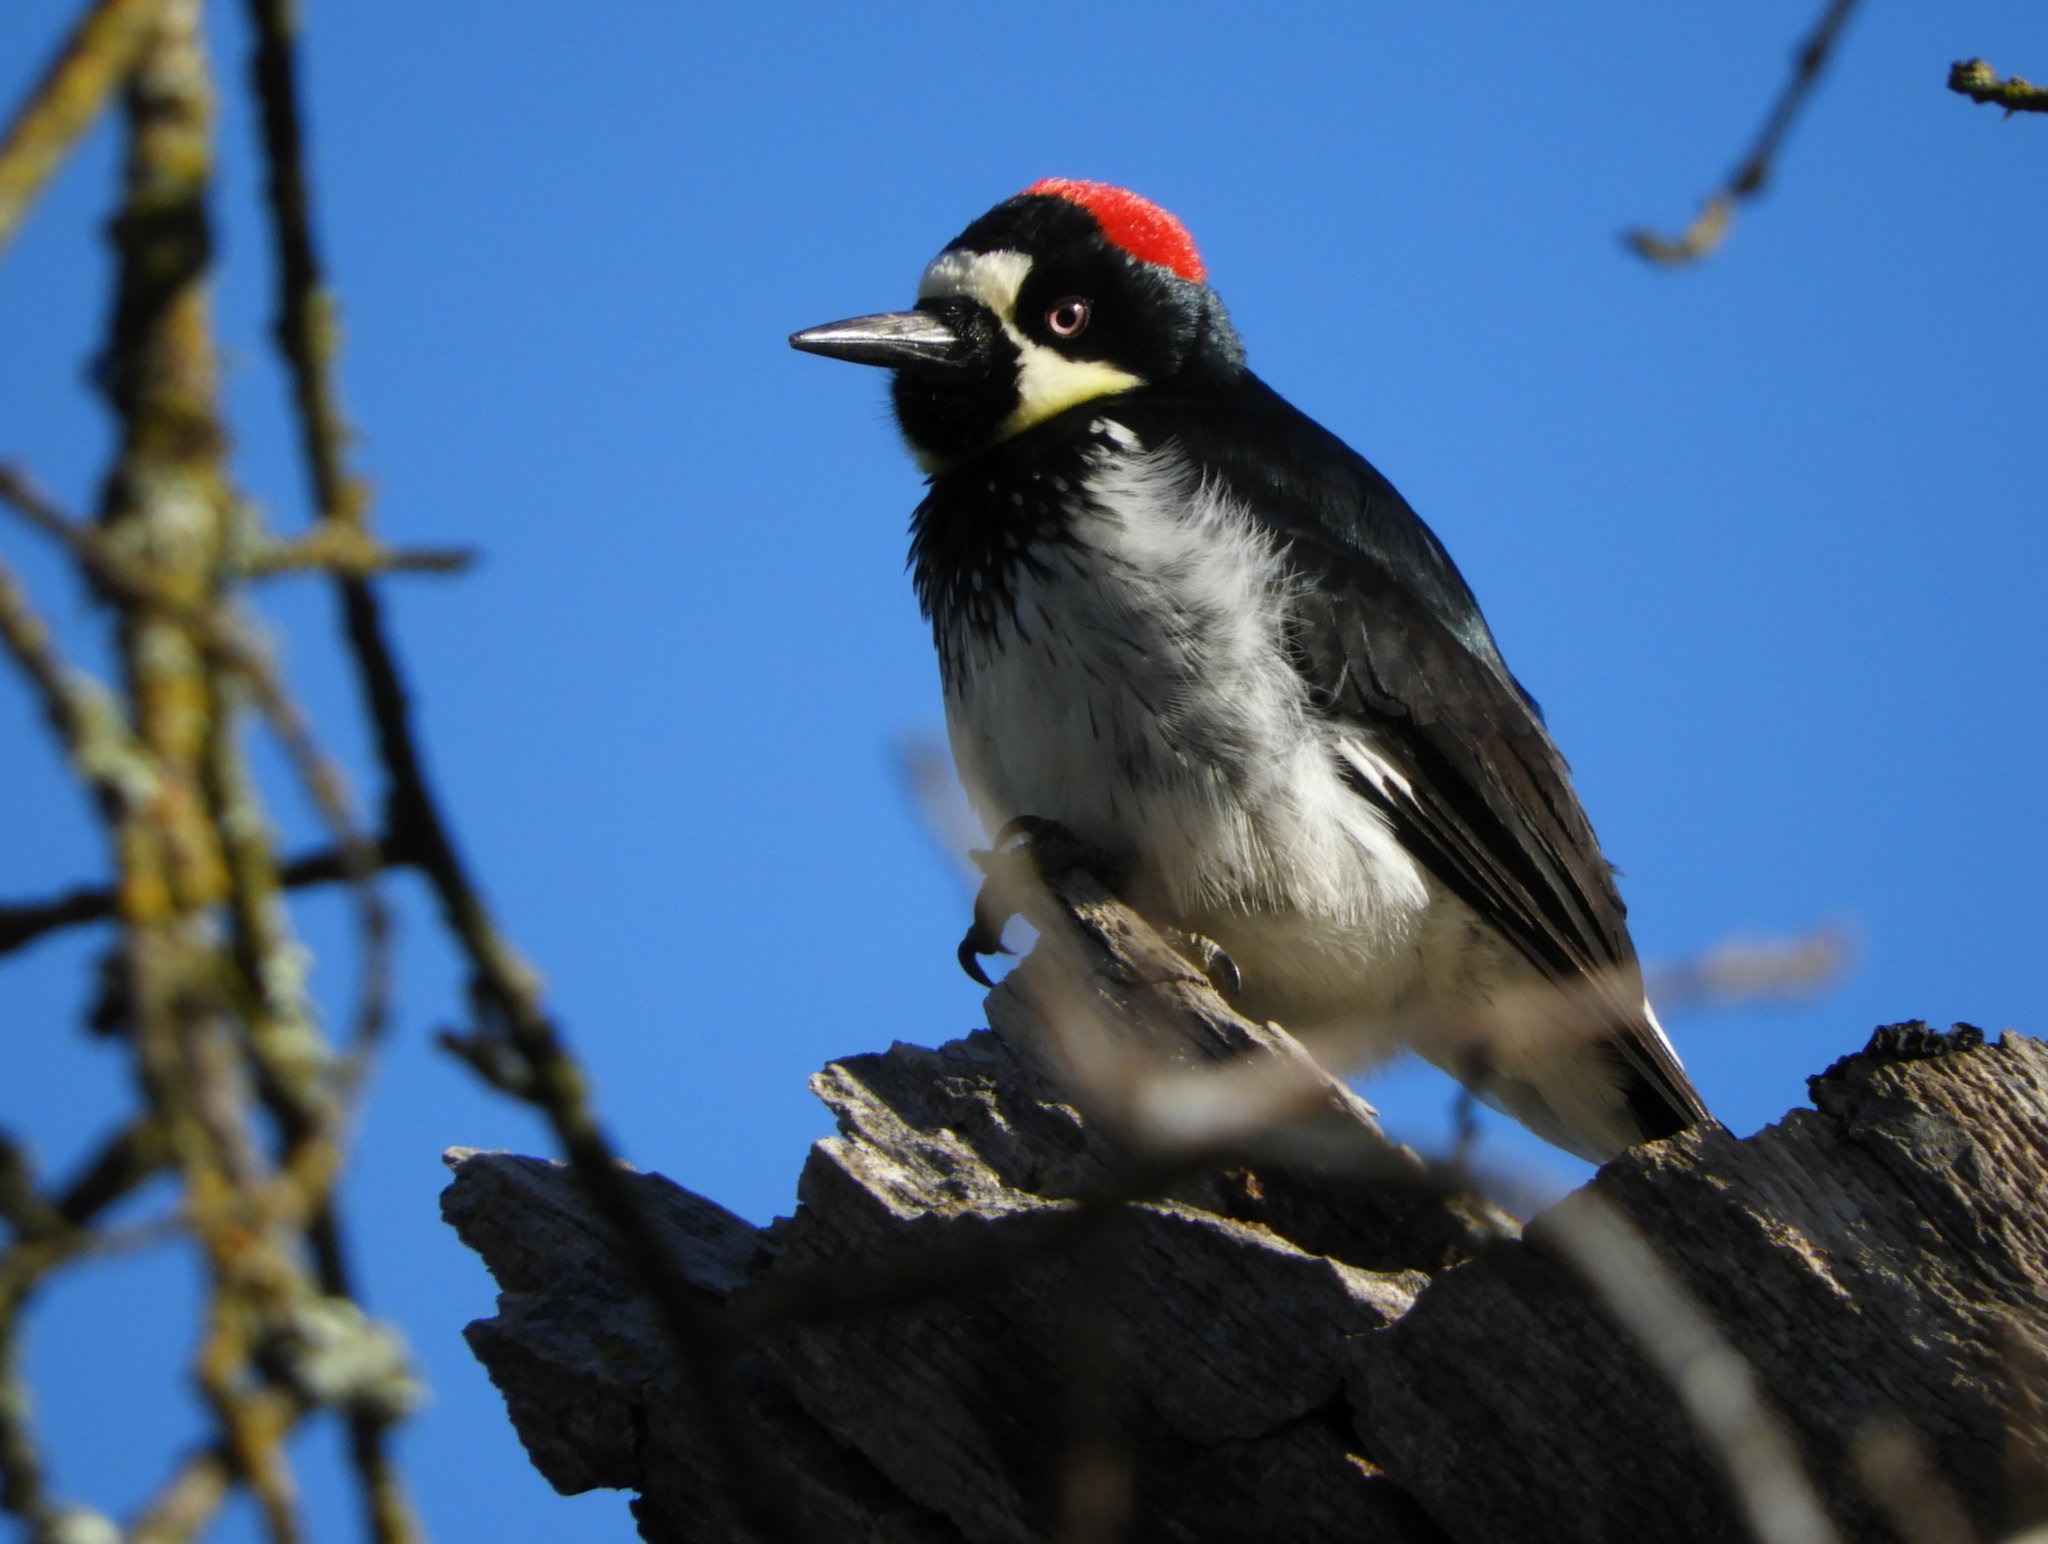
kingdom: Animalia
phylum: Chordata
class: Aves
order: Piciformes
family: Picidae
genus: Melanerpes
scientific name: Melanerpes formicivorus
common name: Acorn woodpecker
